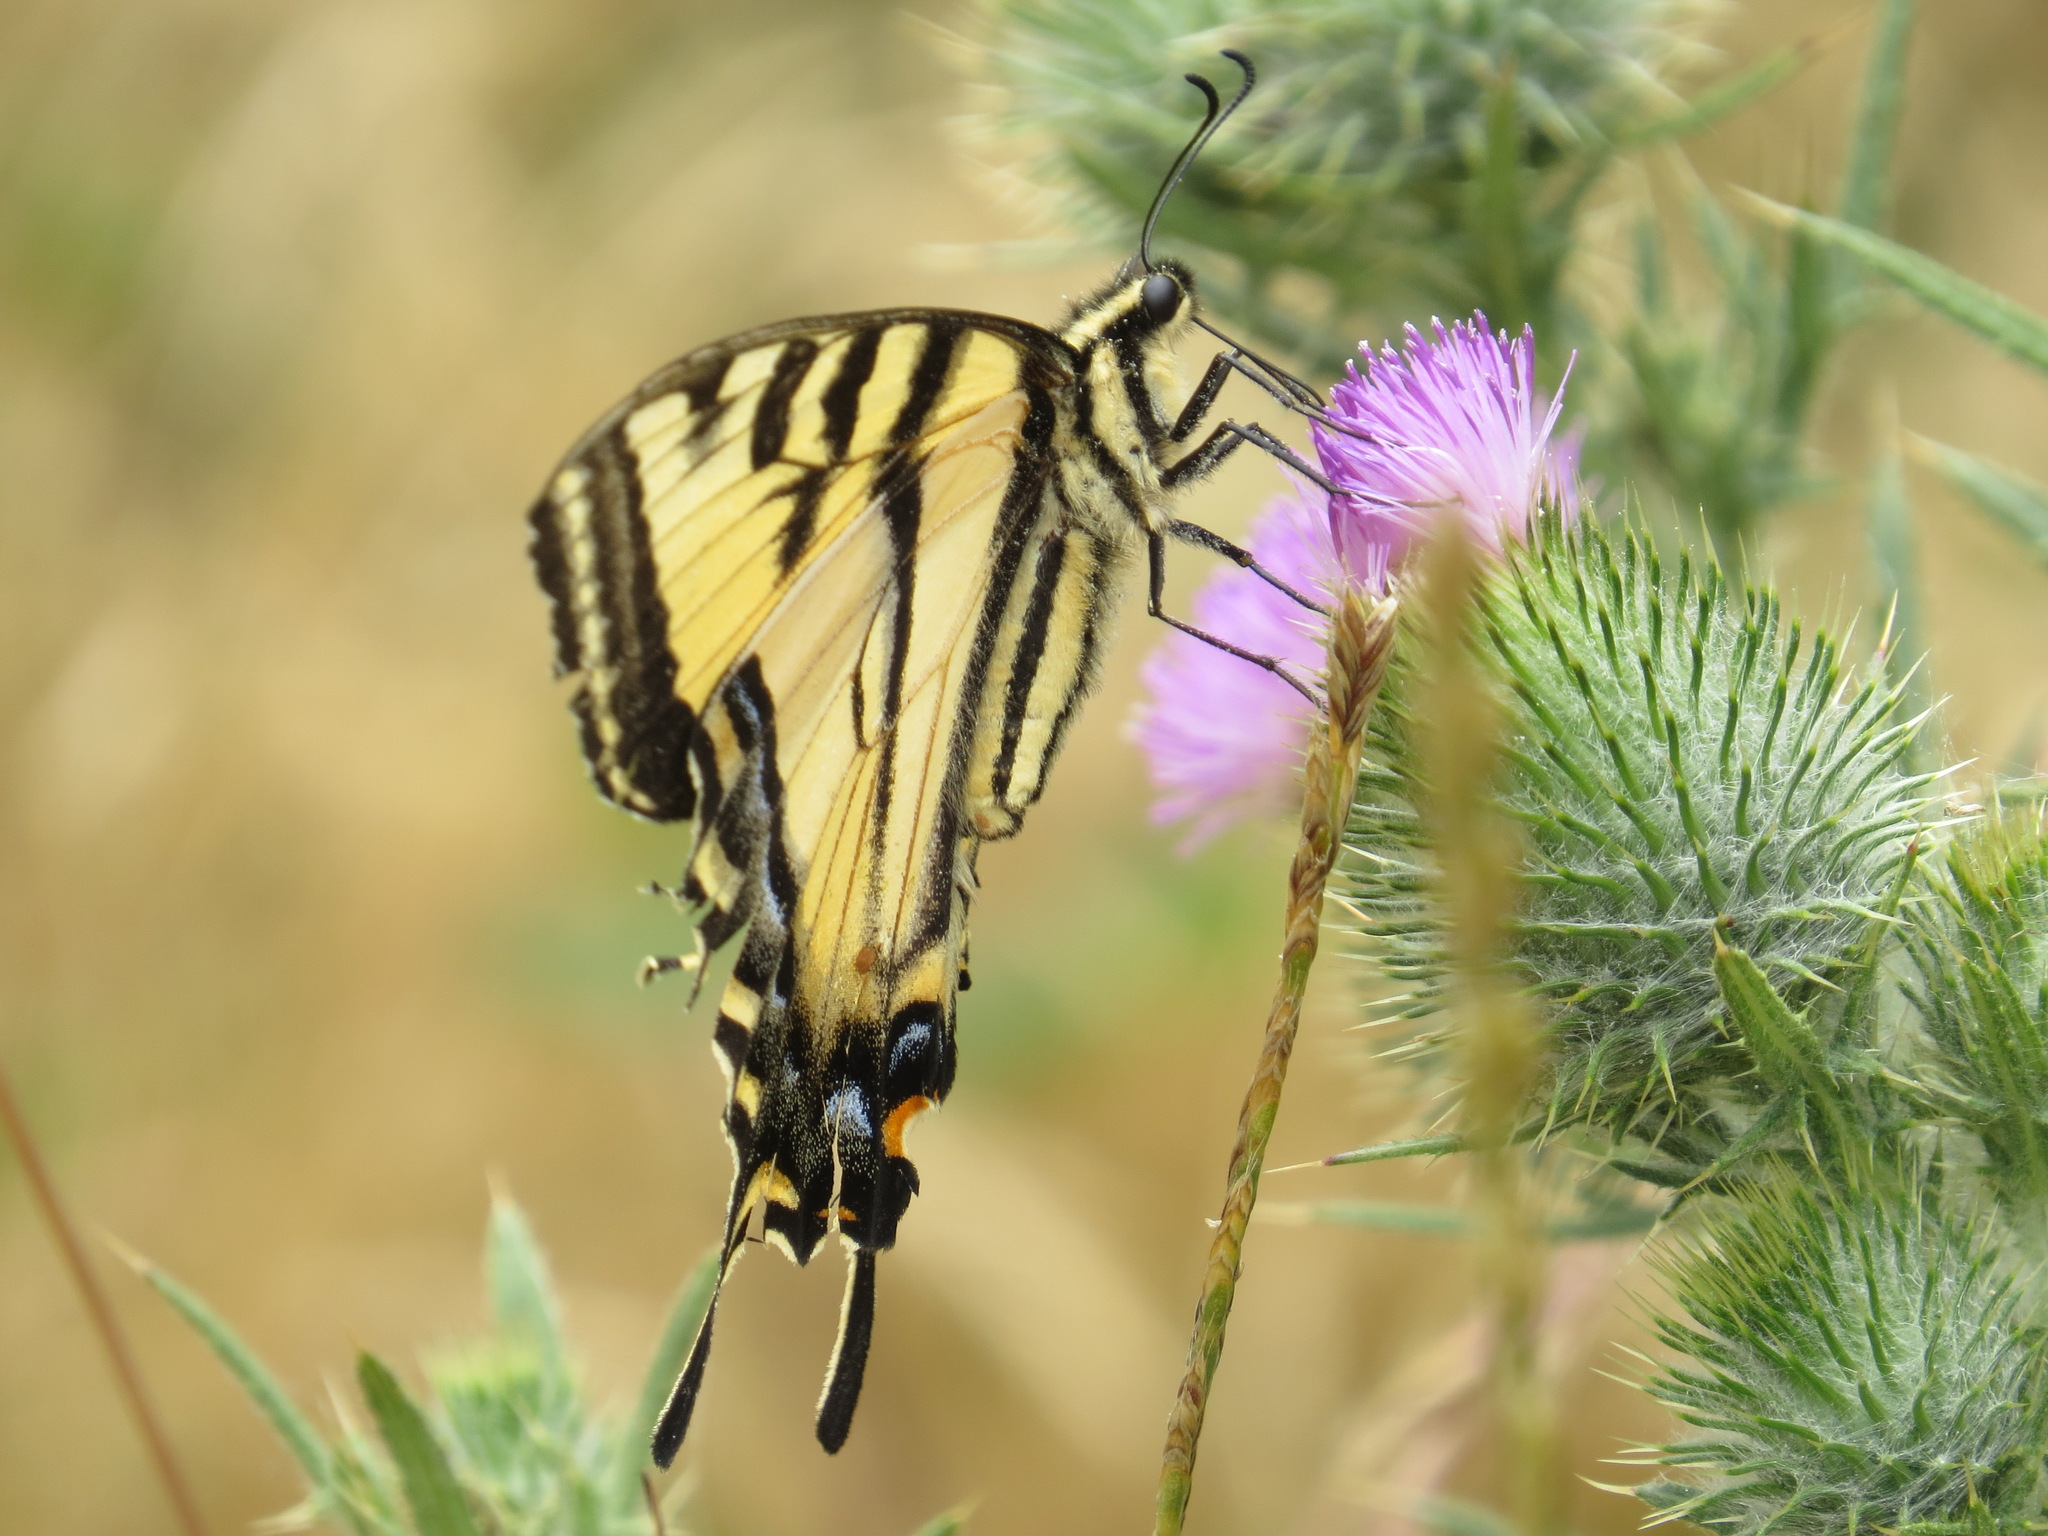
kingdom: Animalia
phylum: Arthropoda
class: Insecta
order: Lepidoptera
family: Papilionidae
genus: Papilio
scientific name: Papilio rutulus
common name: Western tiger swallowtail
